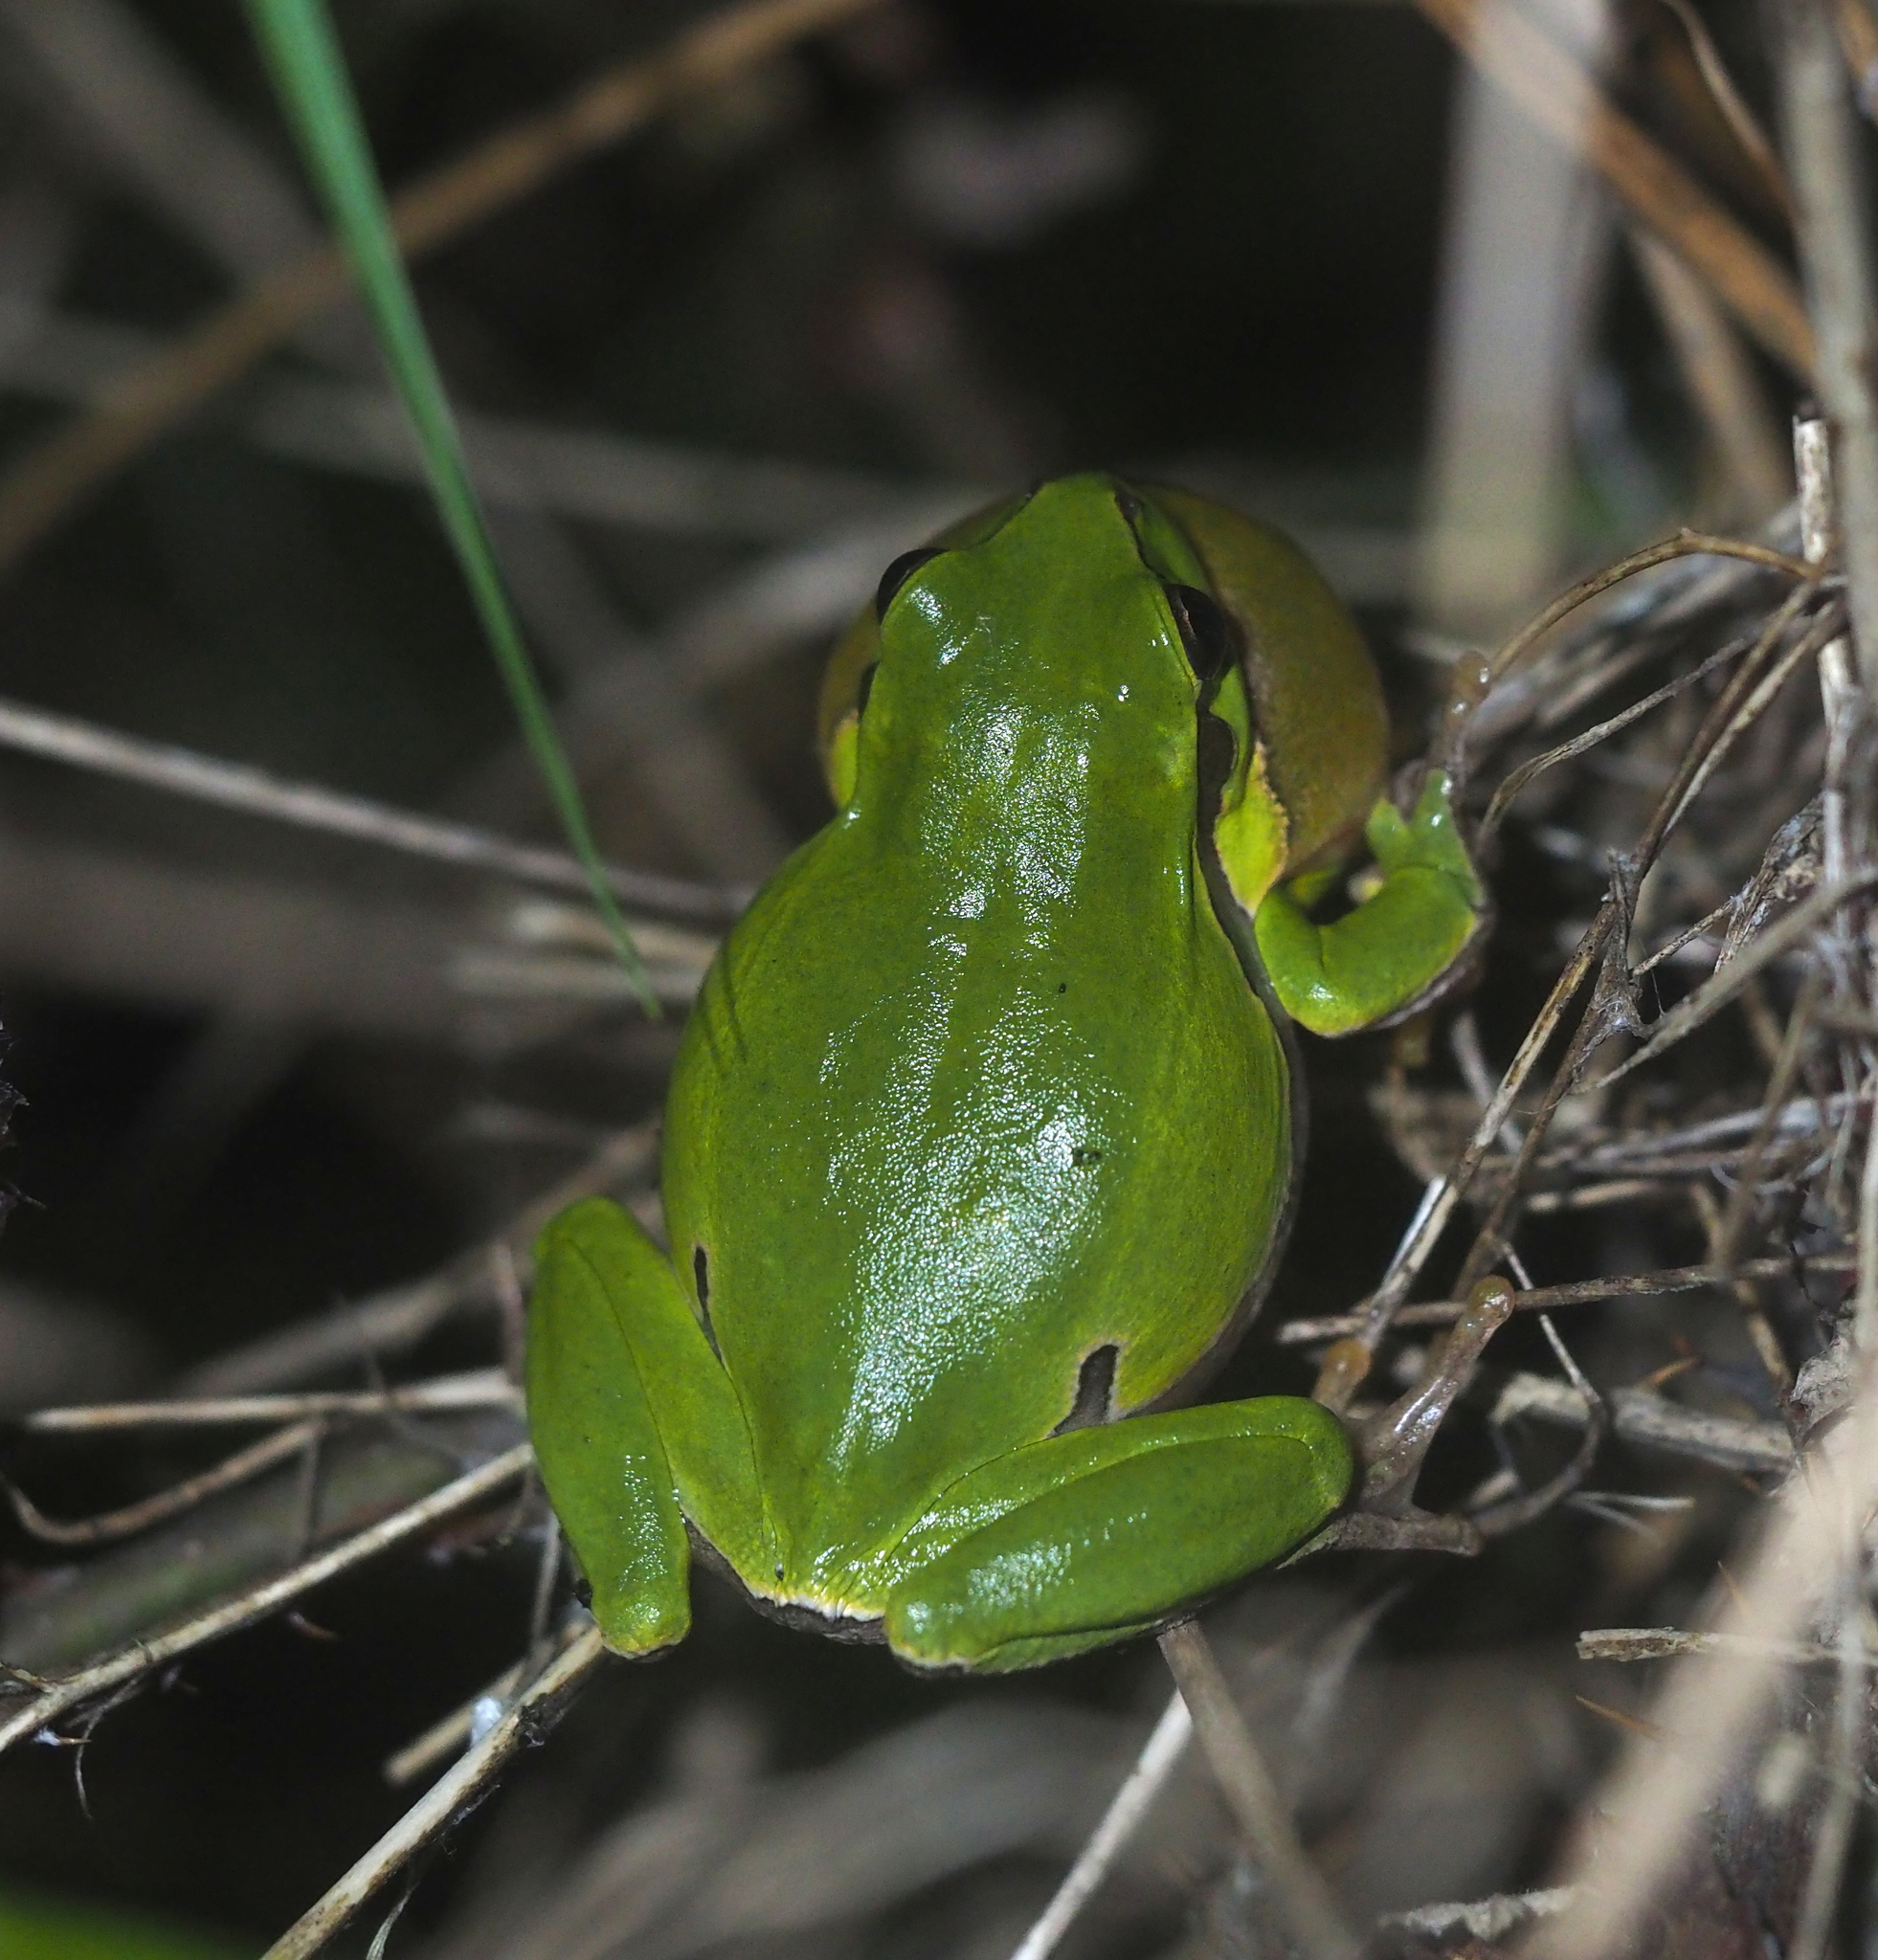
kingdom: Animalia
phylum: Chordata
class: Amphibia
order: Anura
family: Hylidae
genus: Hyla
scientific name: Hyla arborea
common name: Common tree frog
